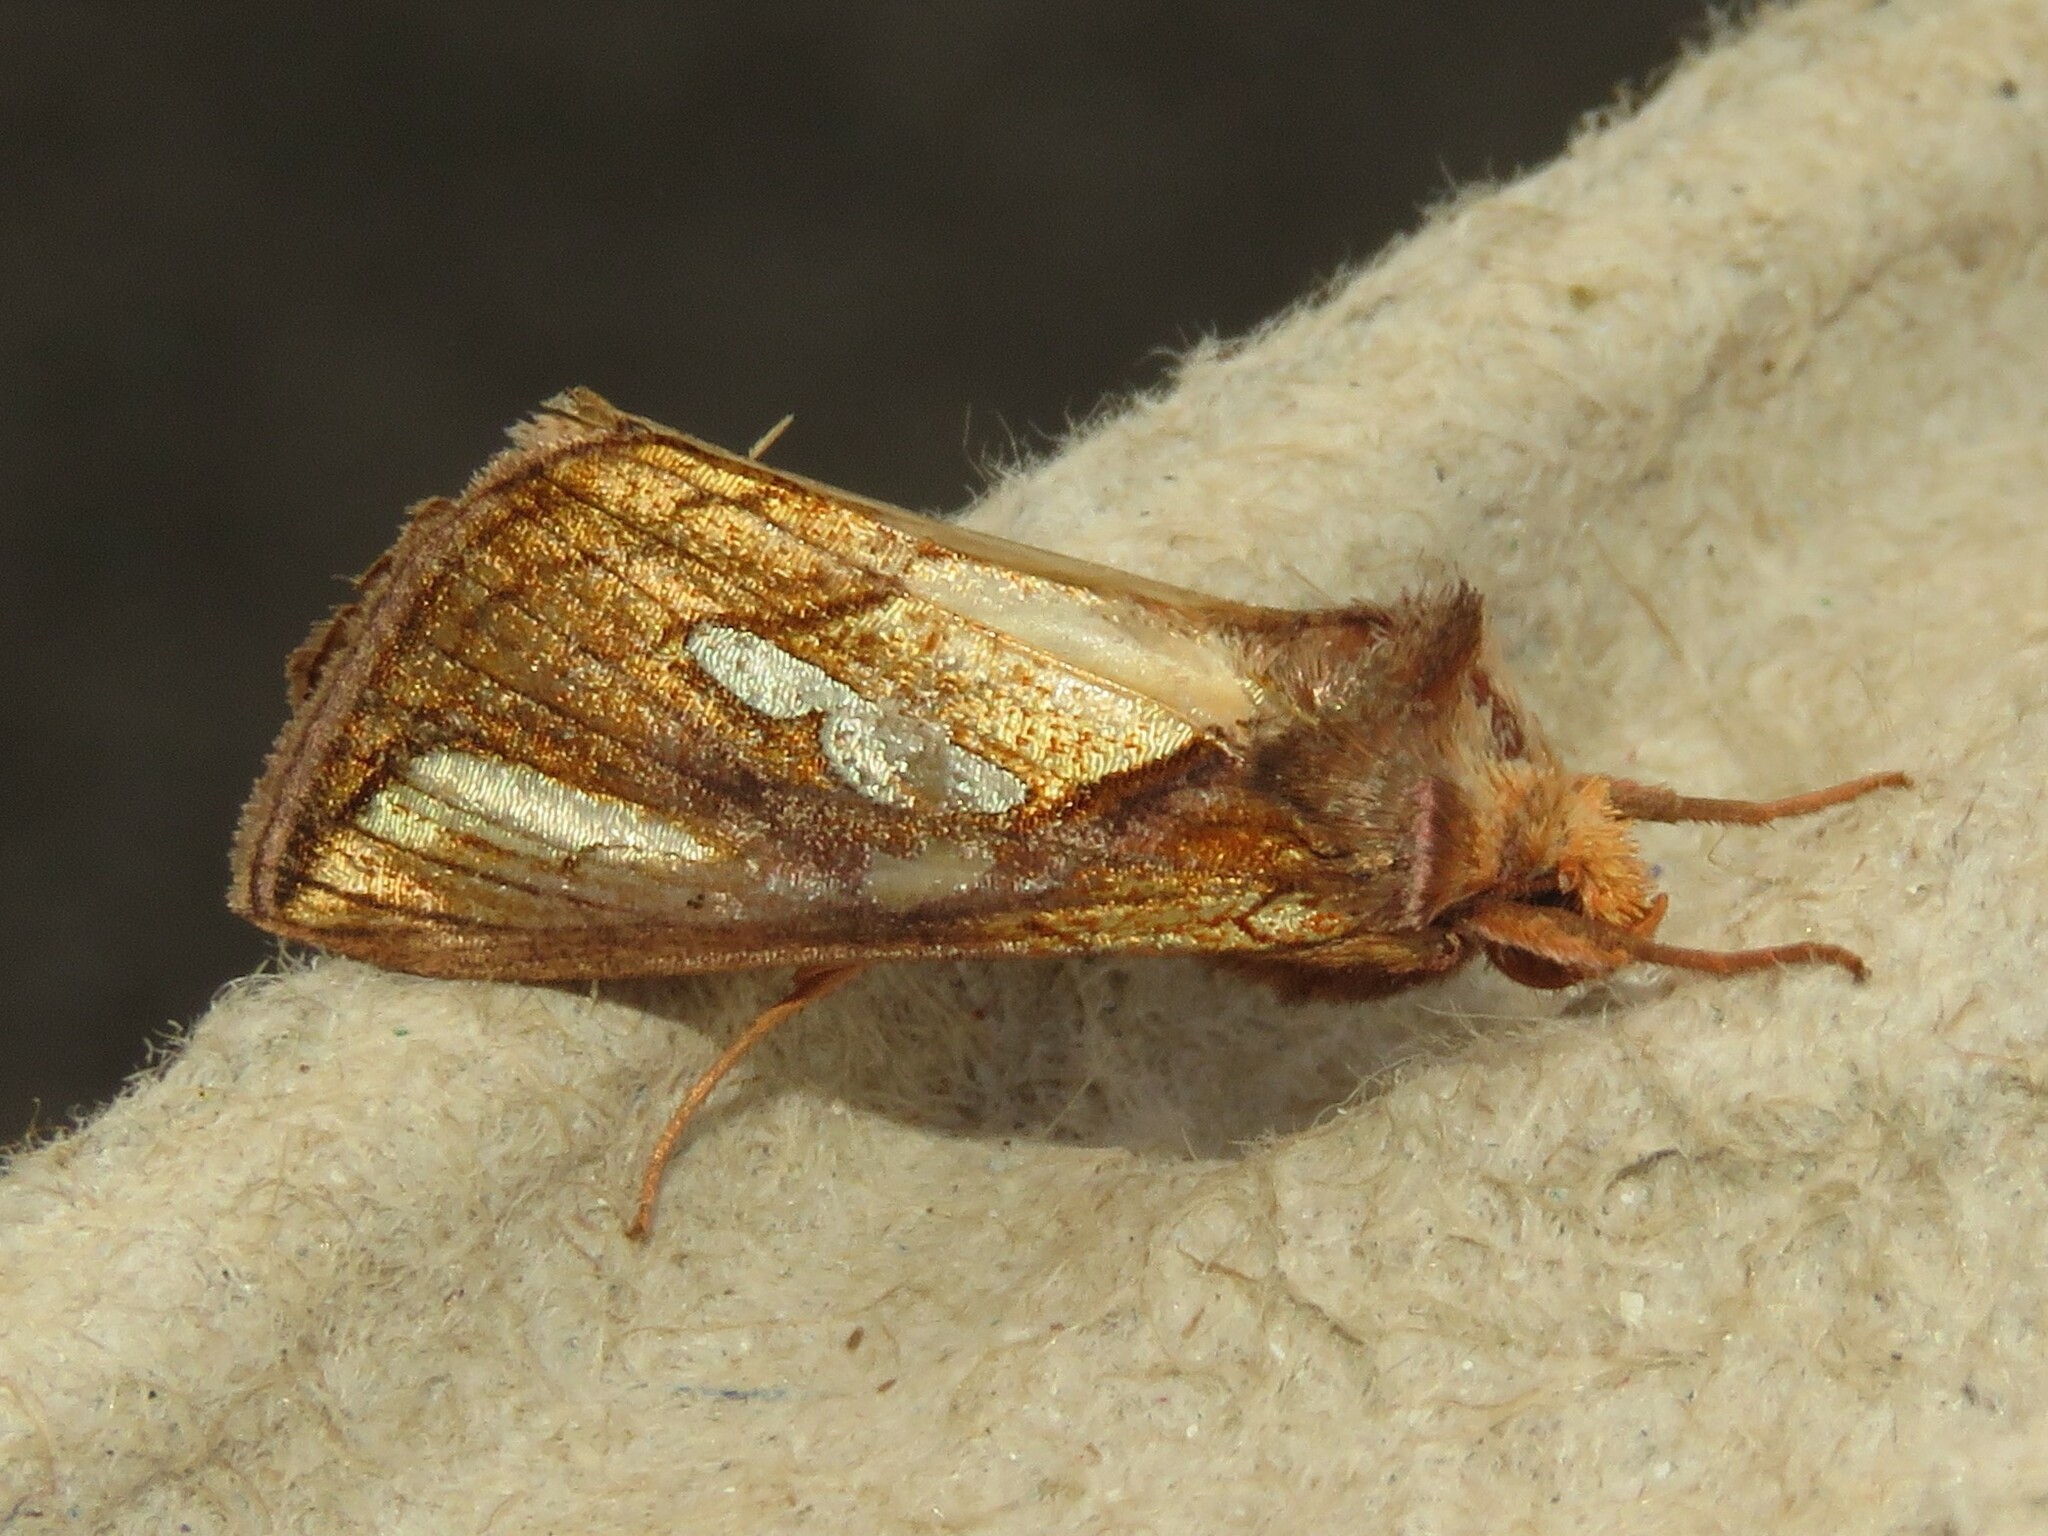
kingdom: Animalia
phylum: Arthropoda
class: Insecta
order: Lepidoptera
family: Noctuidae
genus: Plusia
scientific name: Plusia contexta
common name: Connected looper moth
